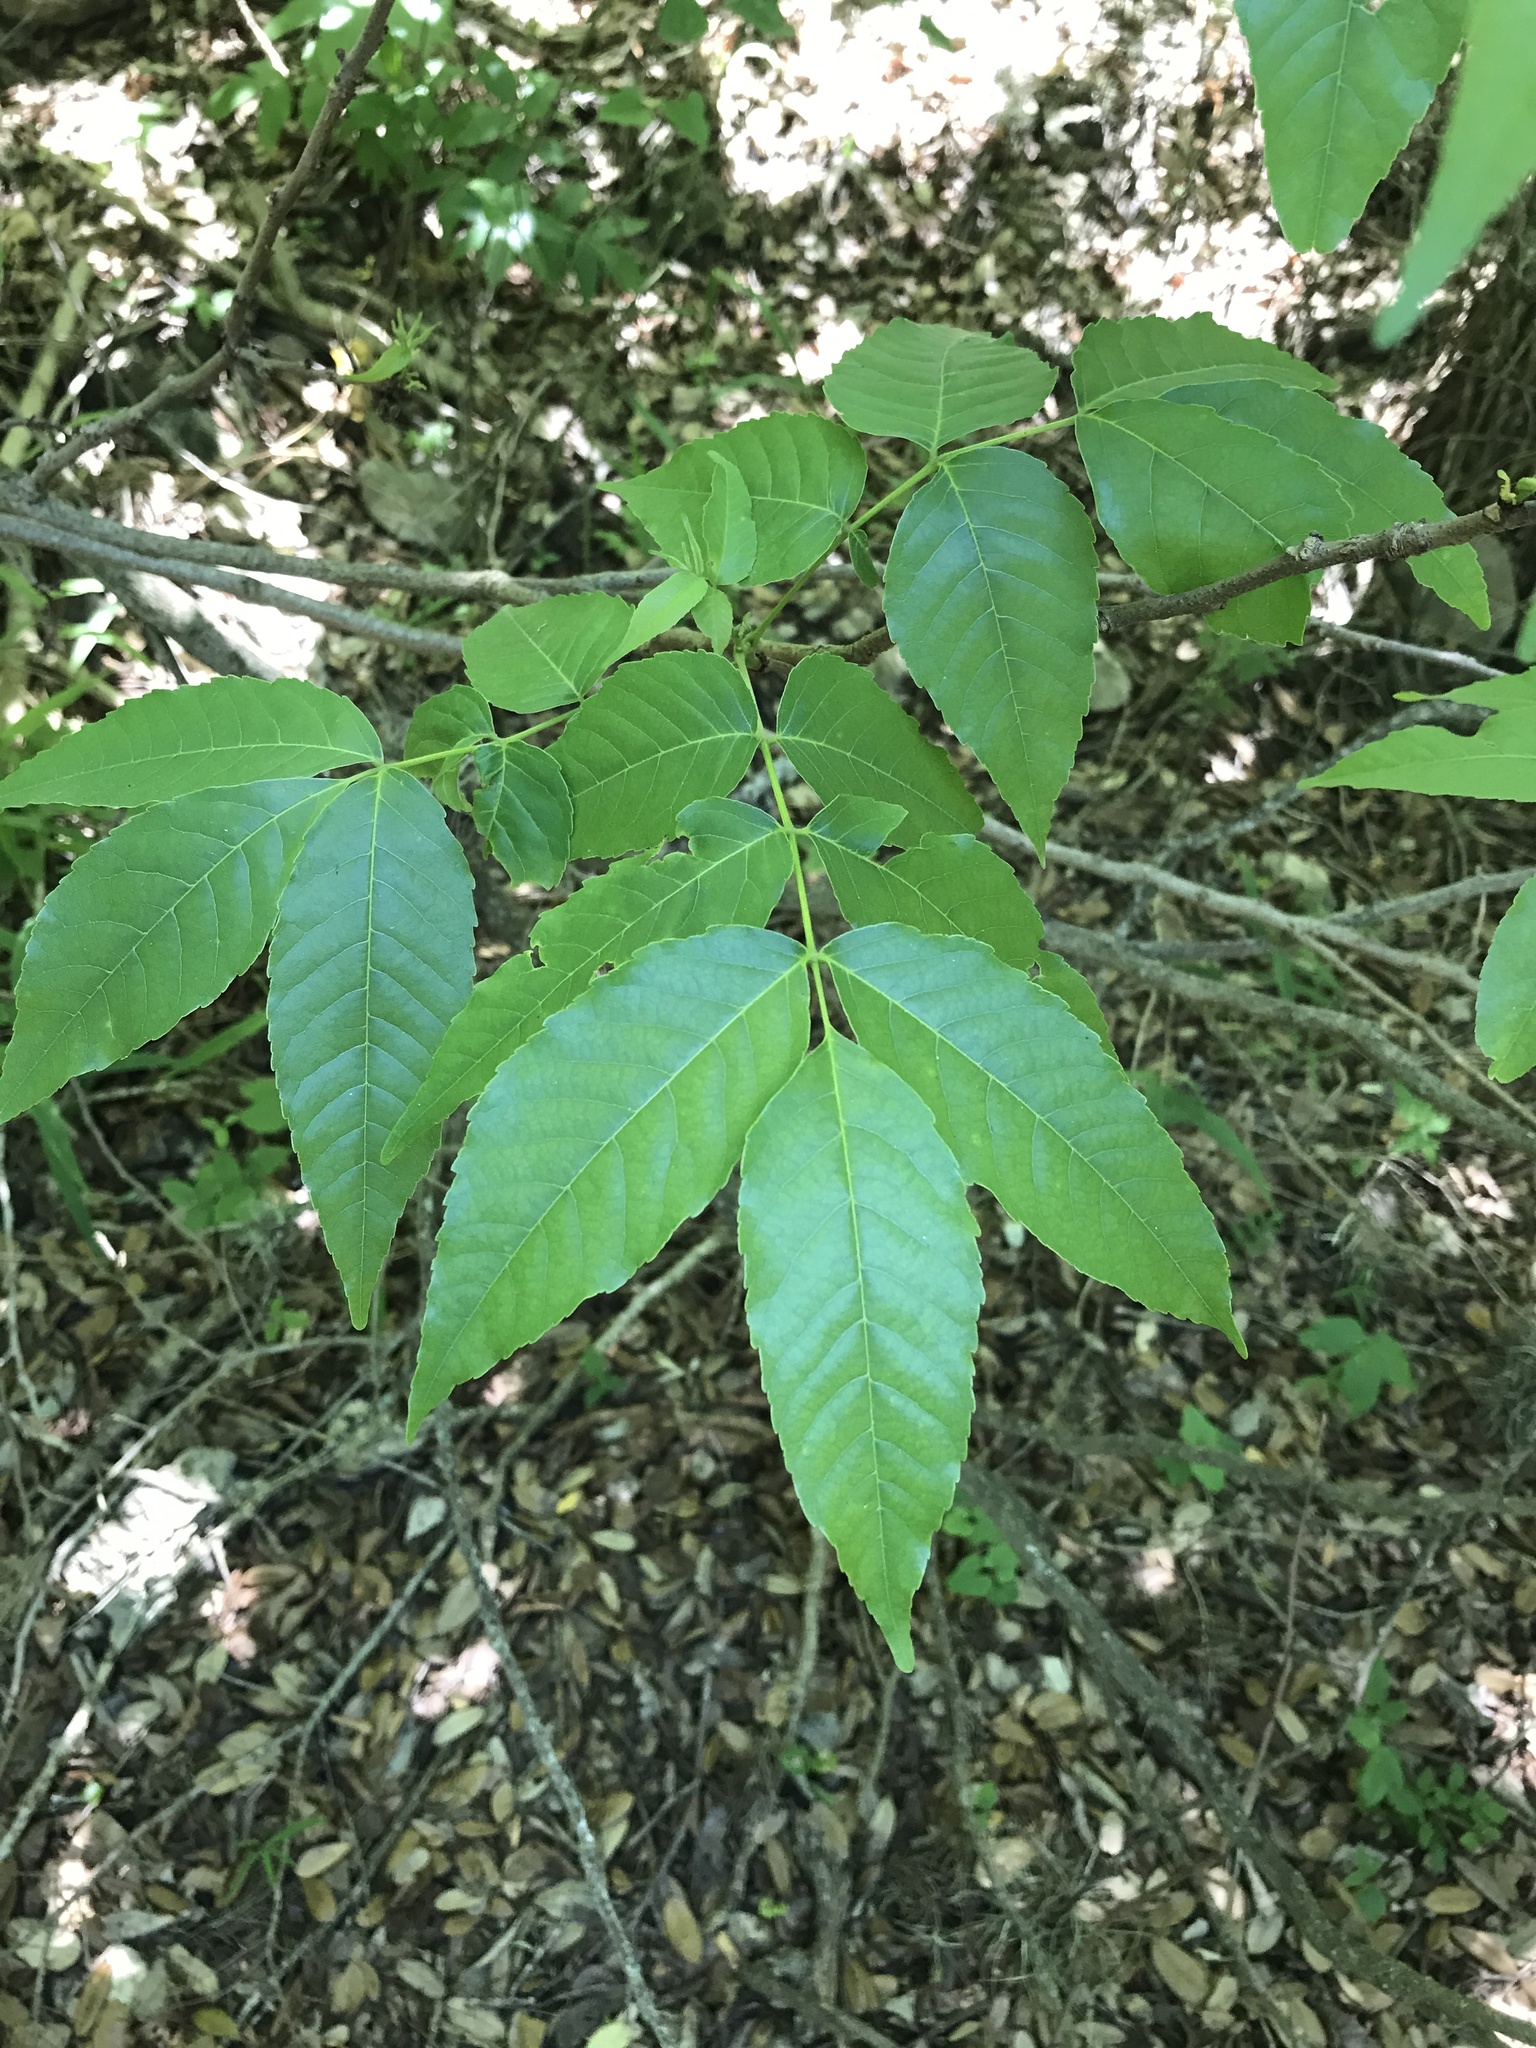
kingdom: Plantae
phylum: Tracheophyta
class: Magnoliopsida
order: Sapindales
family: Sapindaceae
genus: Ungnadia
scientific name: Ungnadia speciosa
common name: Texas-buckeye
